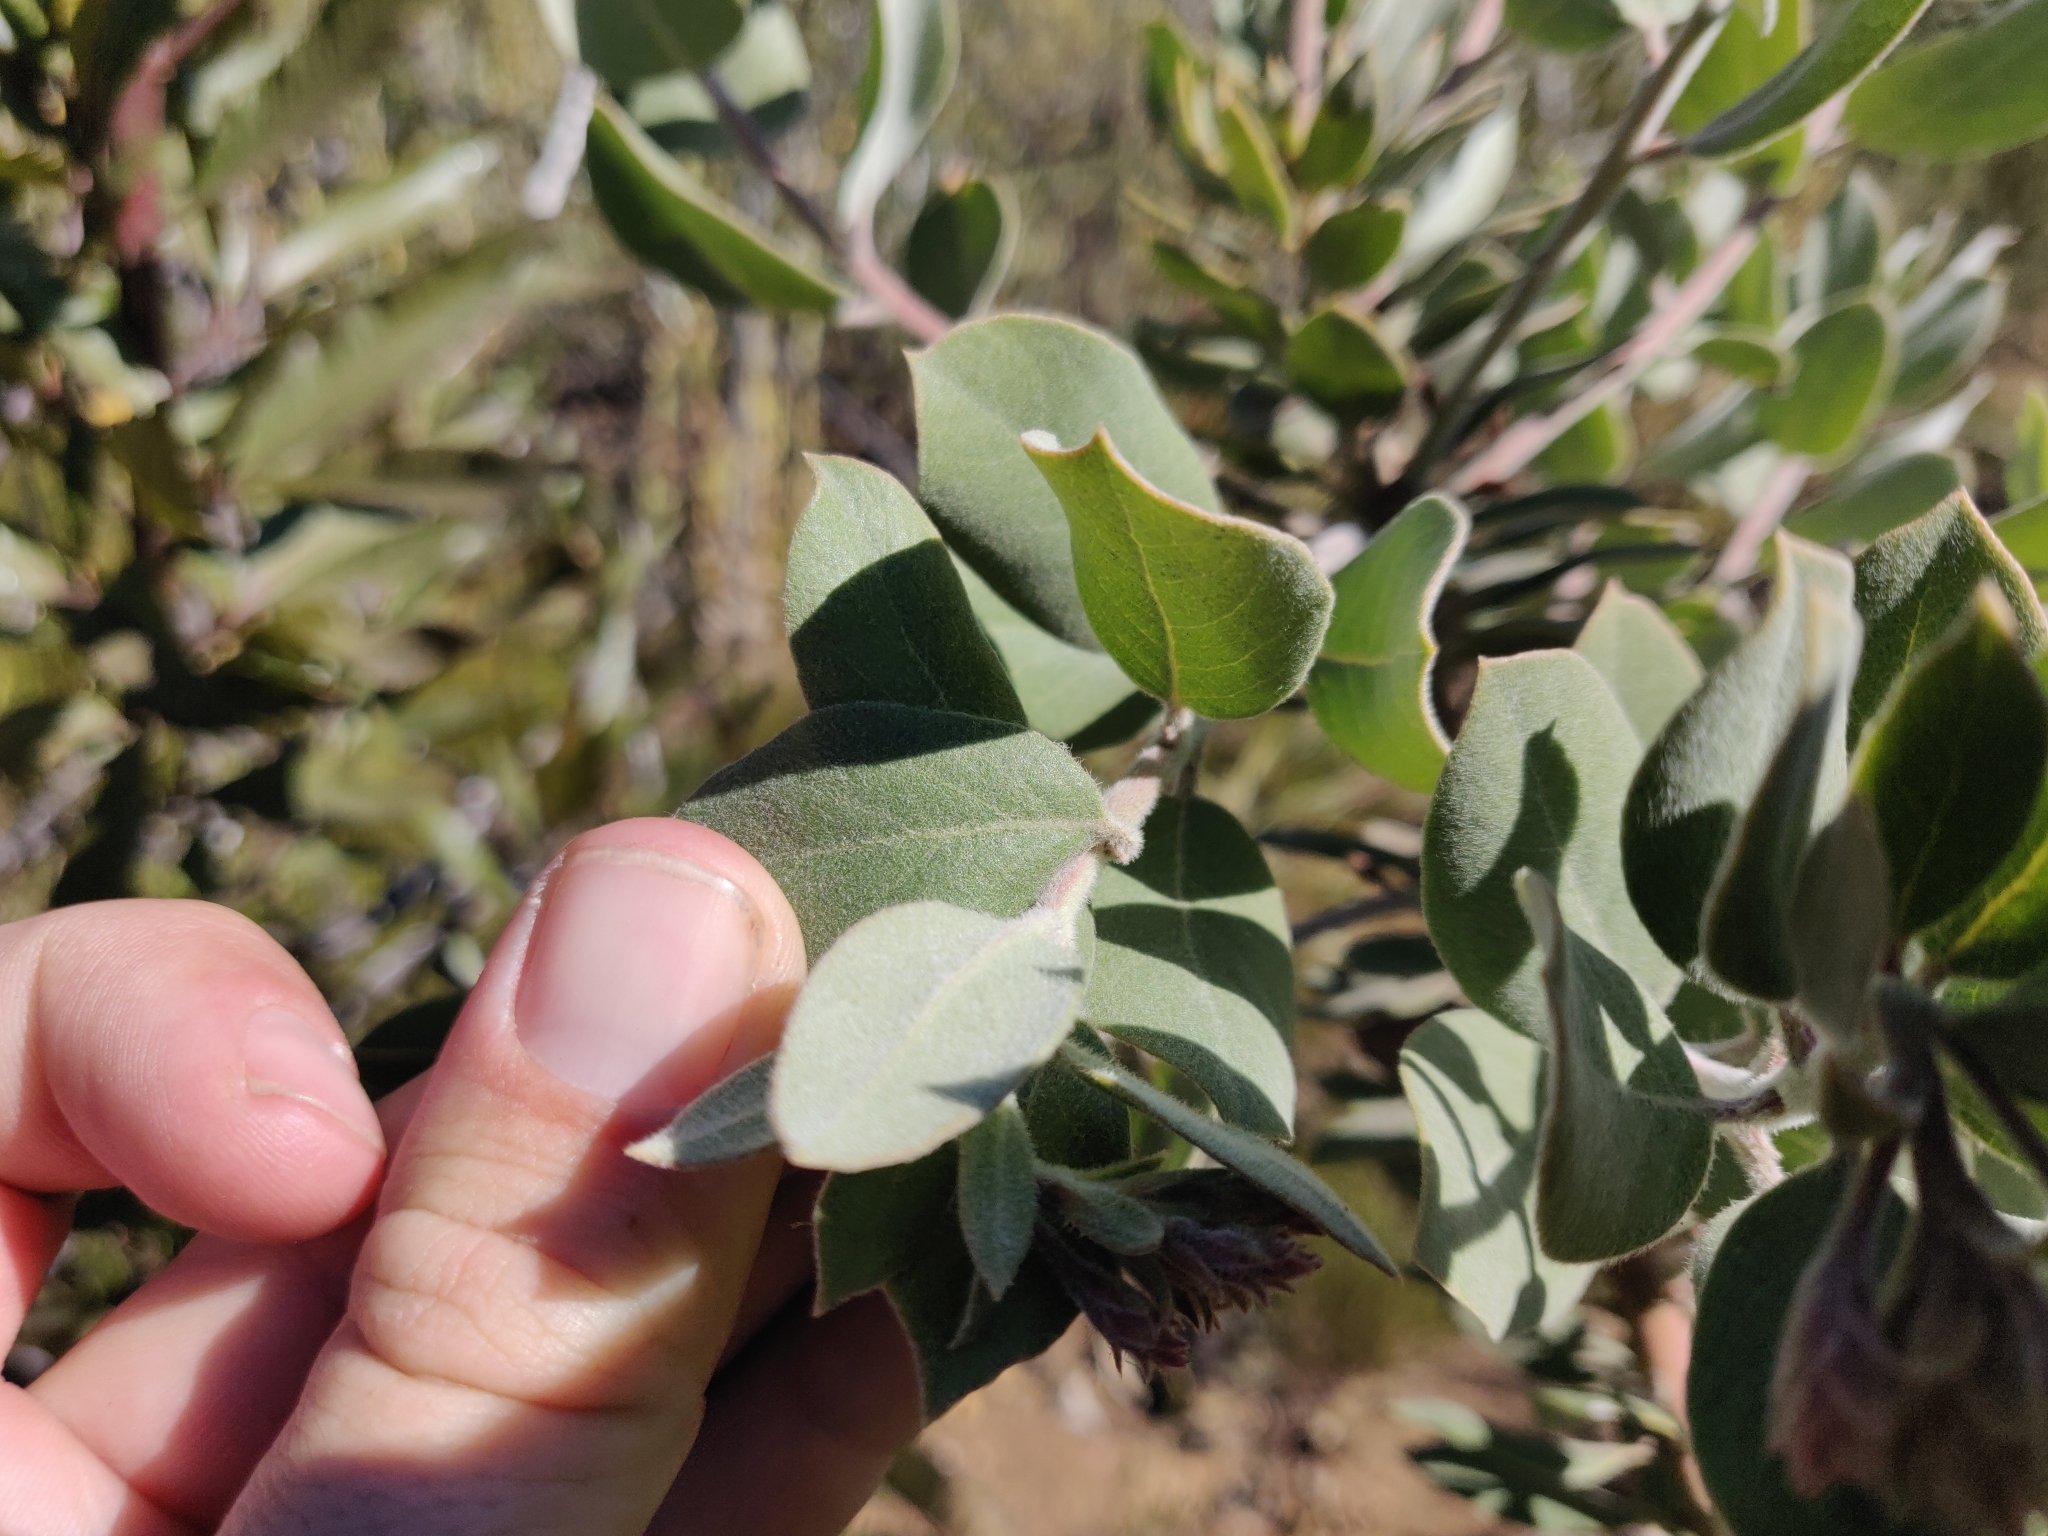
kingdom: Plantae
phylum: Tracheophyta
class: Magnoliopsida
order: Ericales
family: Ericaceae
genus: Arctostaphylos
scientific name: Arctostaphylos crustacea
